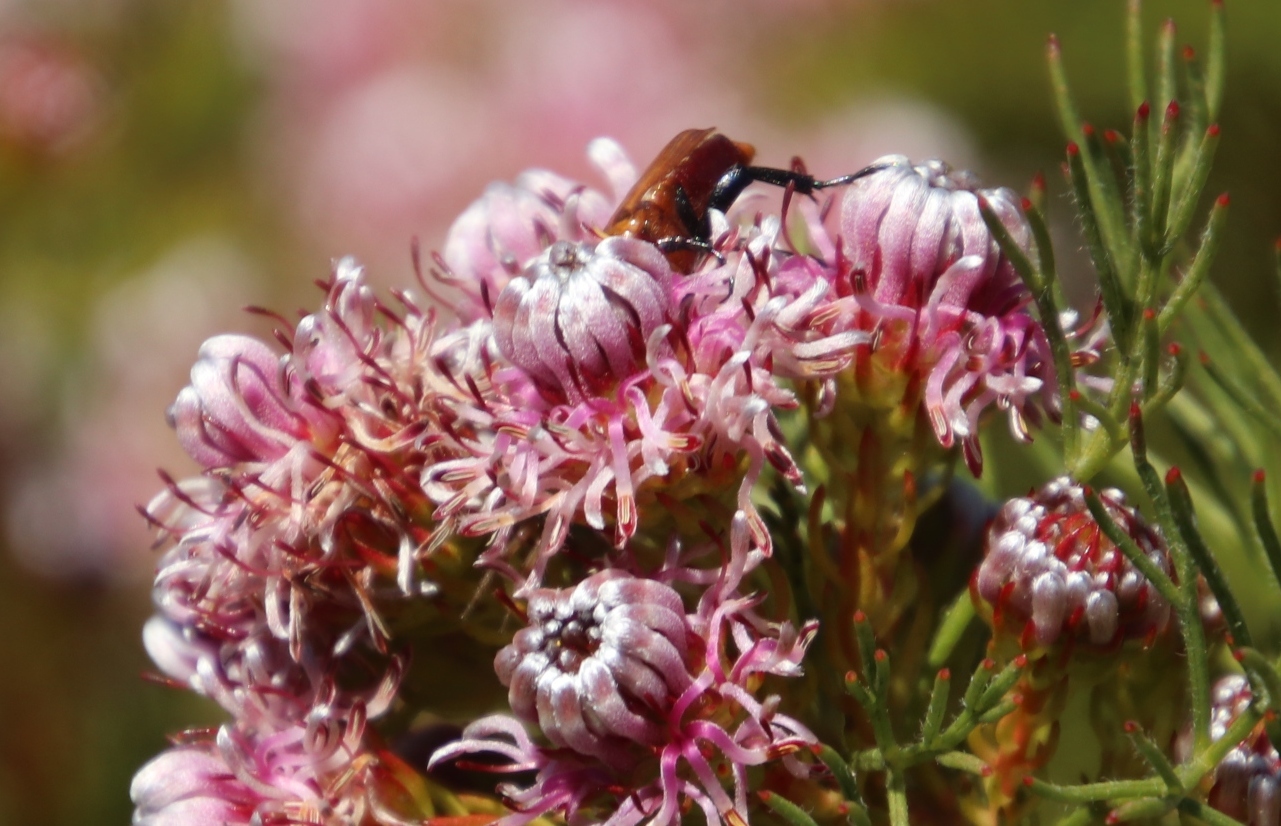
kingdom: Animalia
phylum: Arthropoda
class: Insecta
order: Coleoptera
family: Scarabaeidae
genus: Leucocelis
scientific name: Leucocelis rubra
